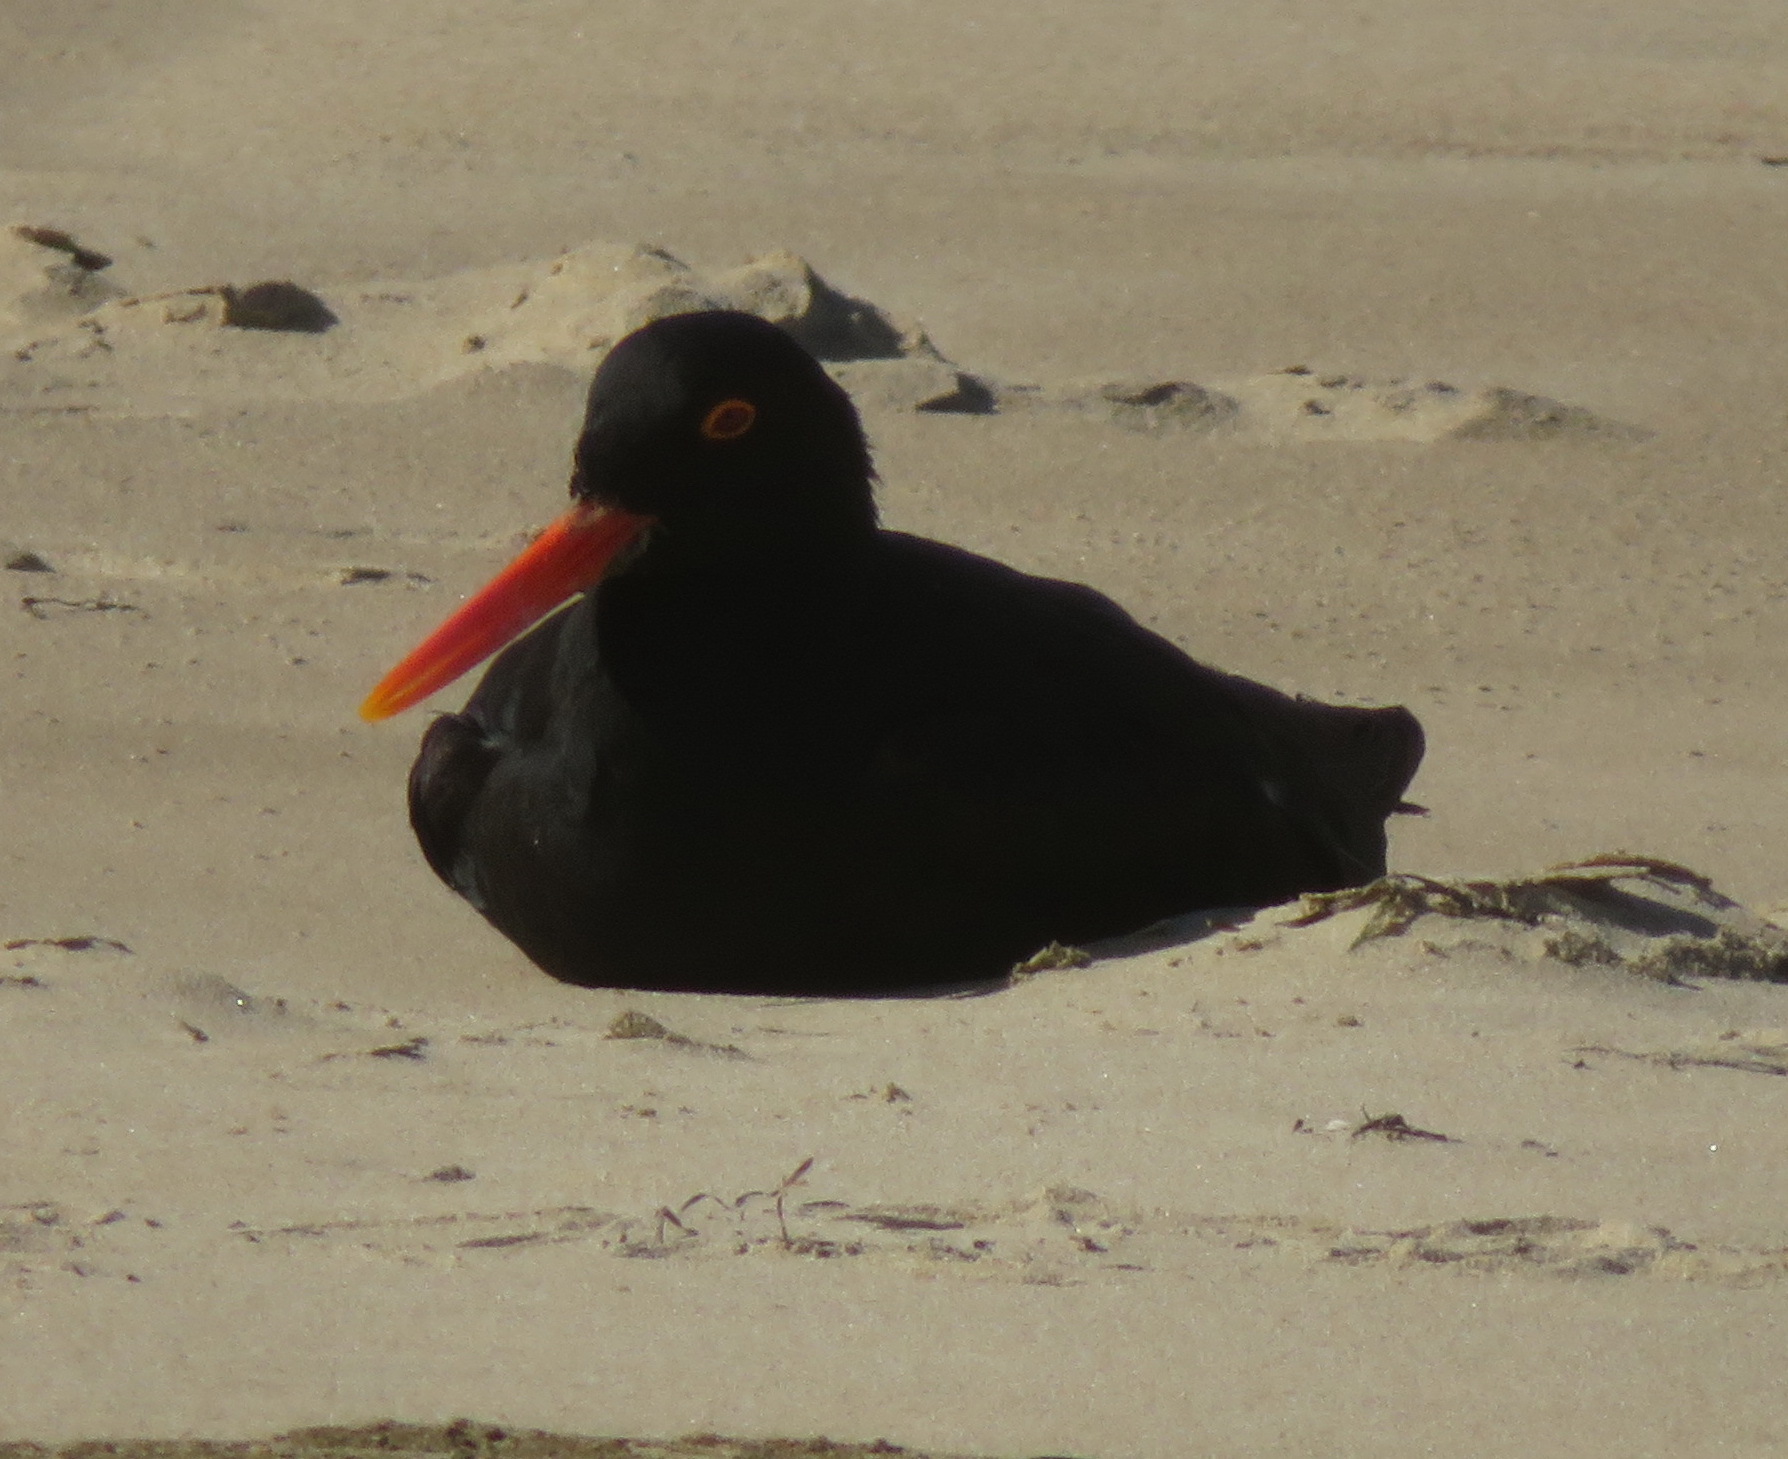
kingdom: Animalia
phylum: Chordata
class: Aves
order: Charadriiformes
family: Haematopodidae
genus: Haematopus
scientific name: Haematopus moquini
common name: African oystercatcher
